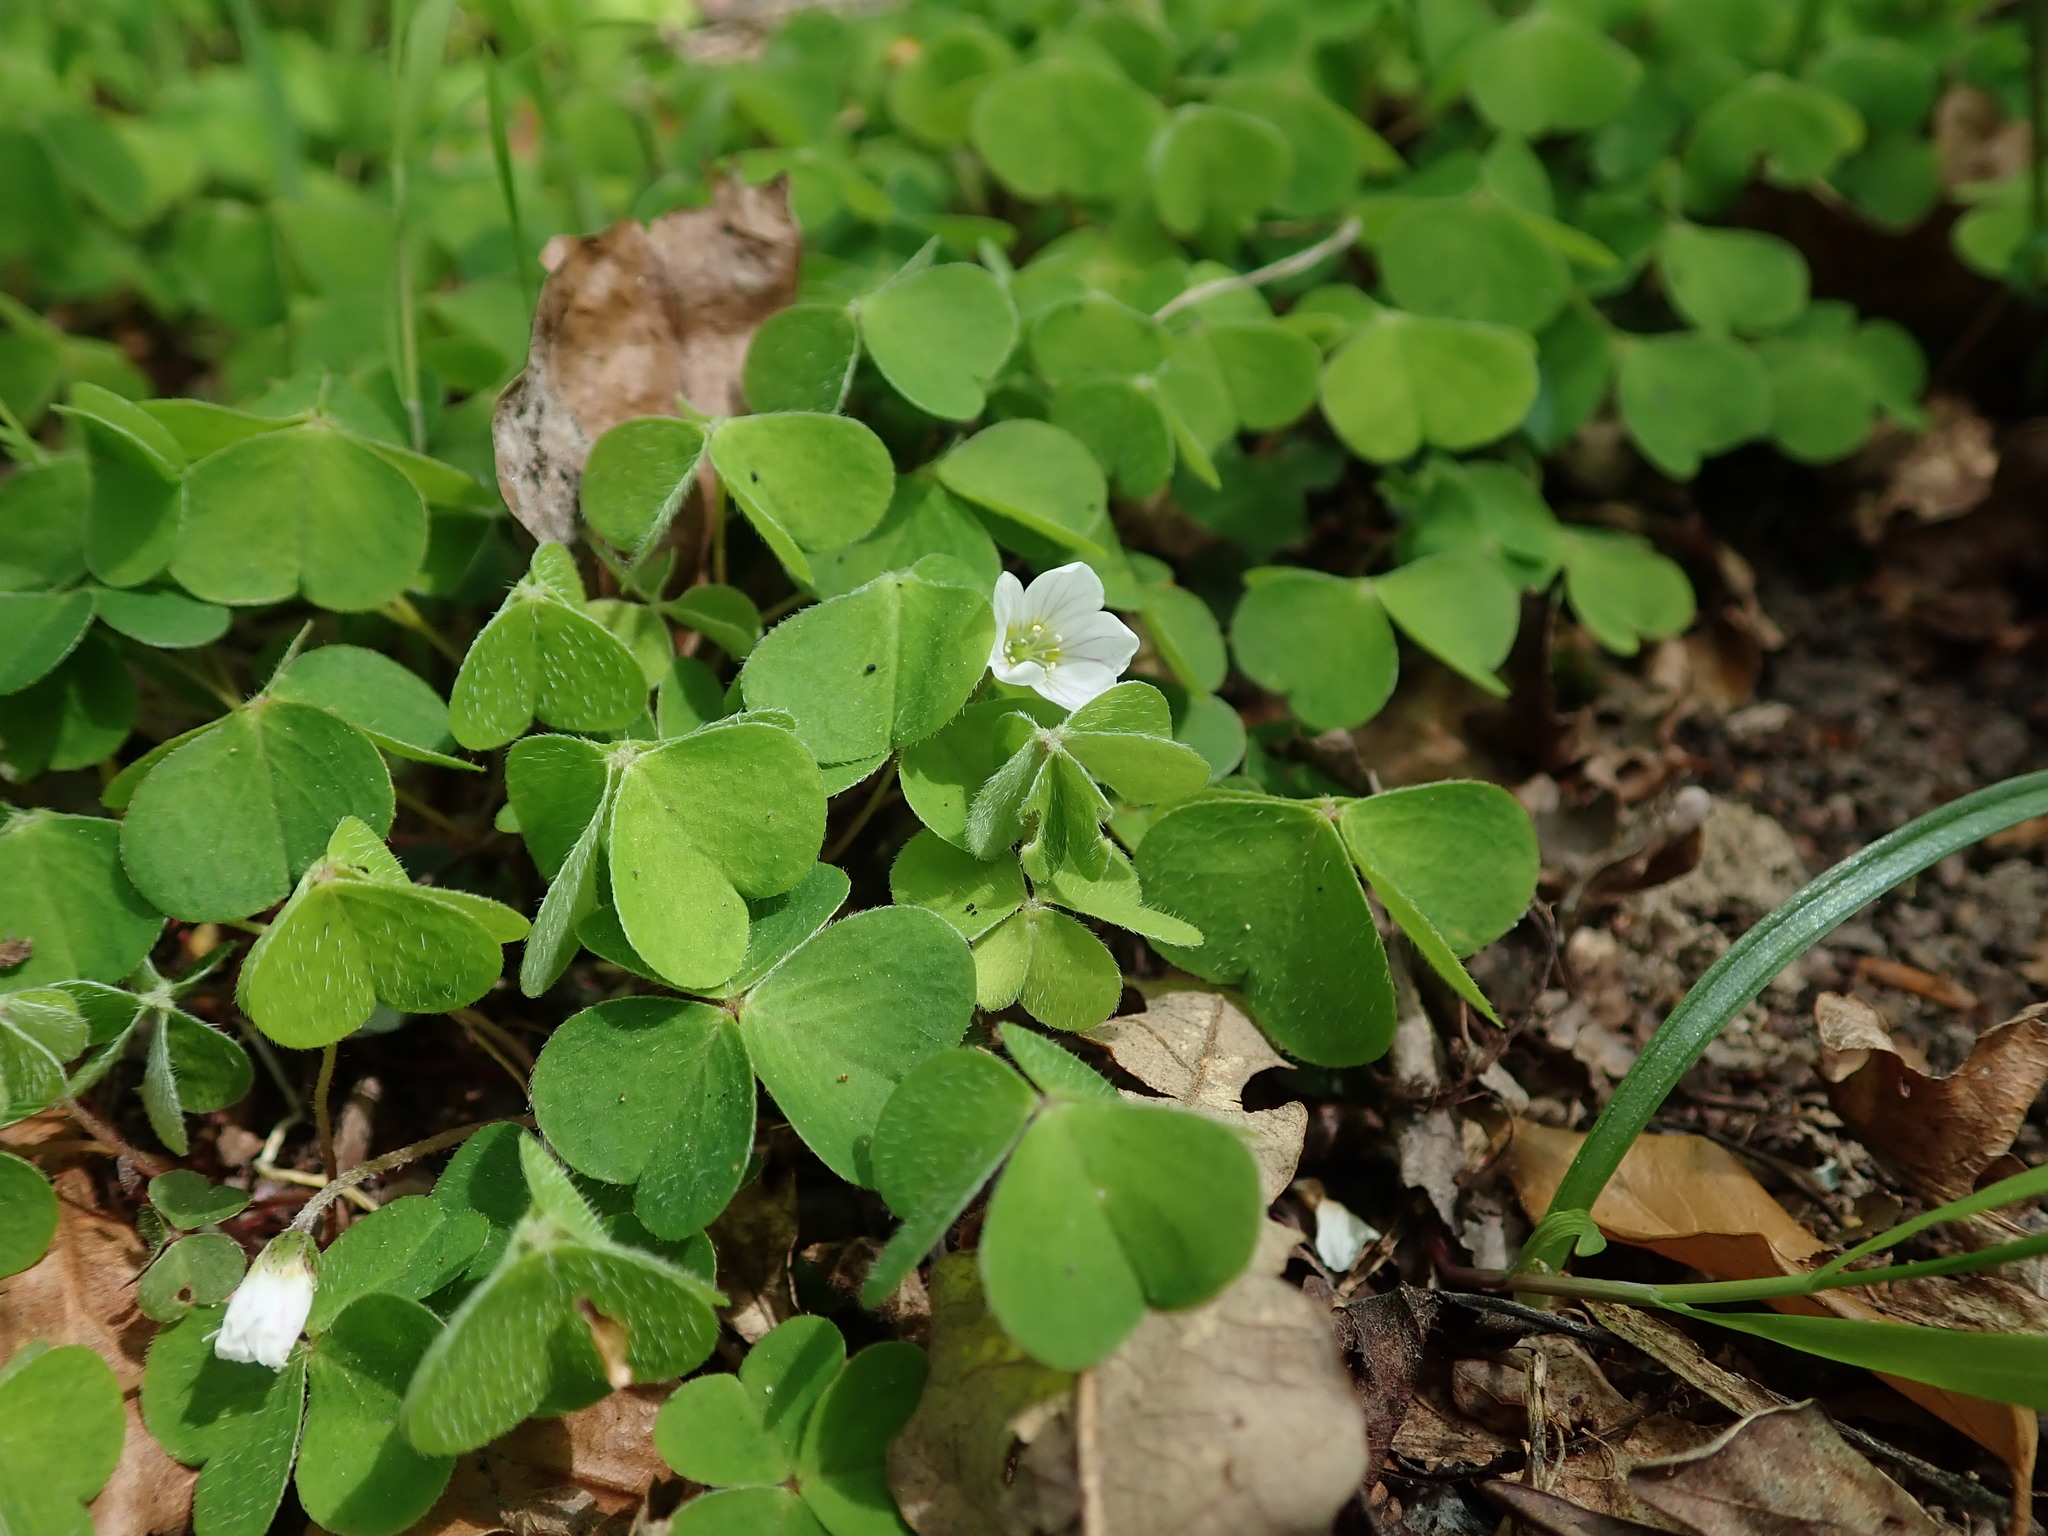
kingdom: Plantae
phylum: Tracheophyta
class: Magnoliopsida
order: Oxalidales
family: Oxalidaceae
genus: Oxalis
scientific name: Oxalis acetosella
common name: Wood-sorrel
